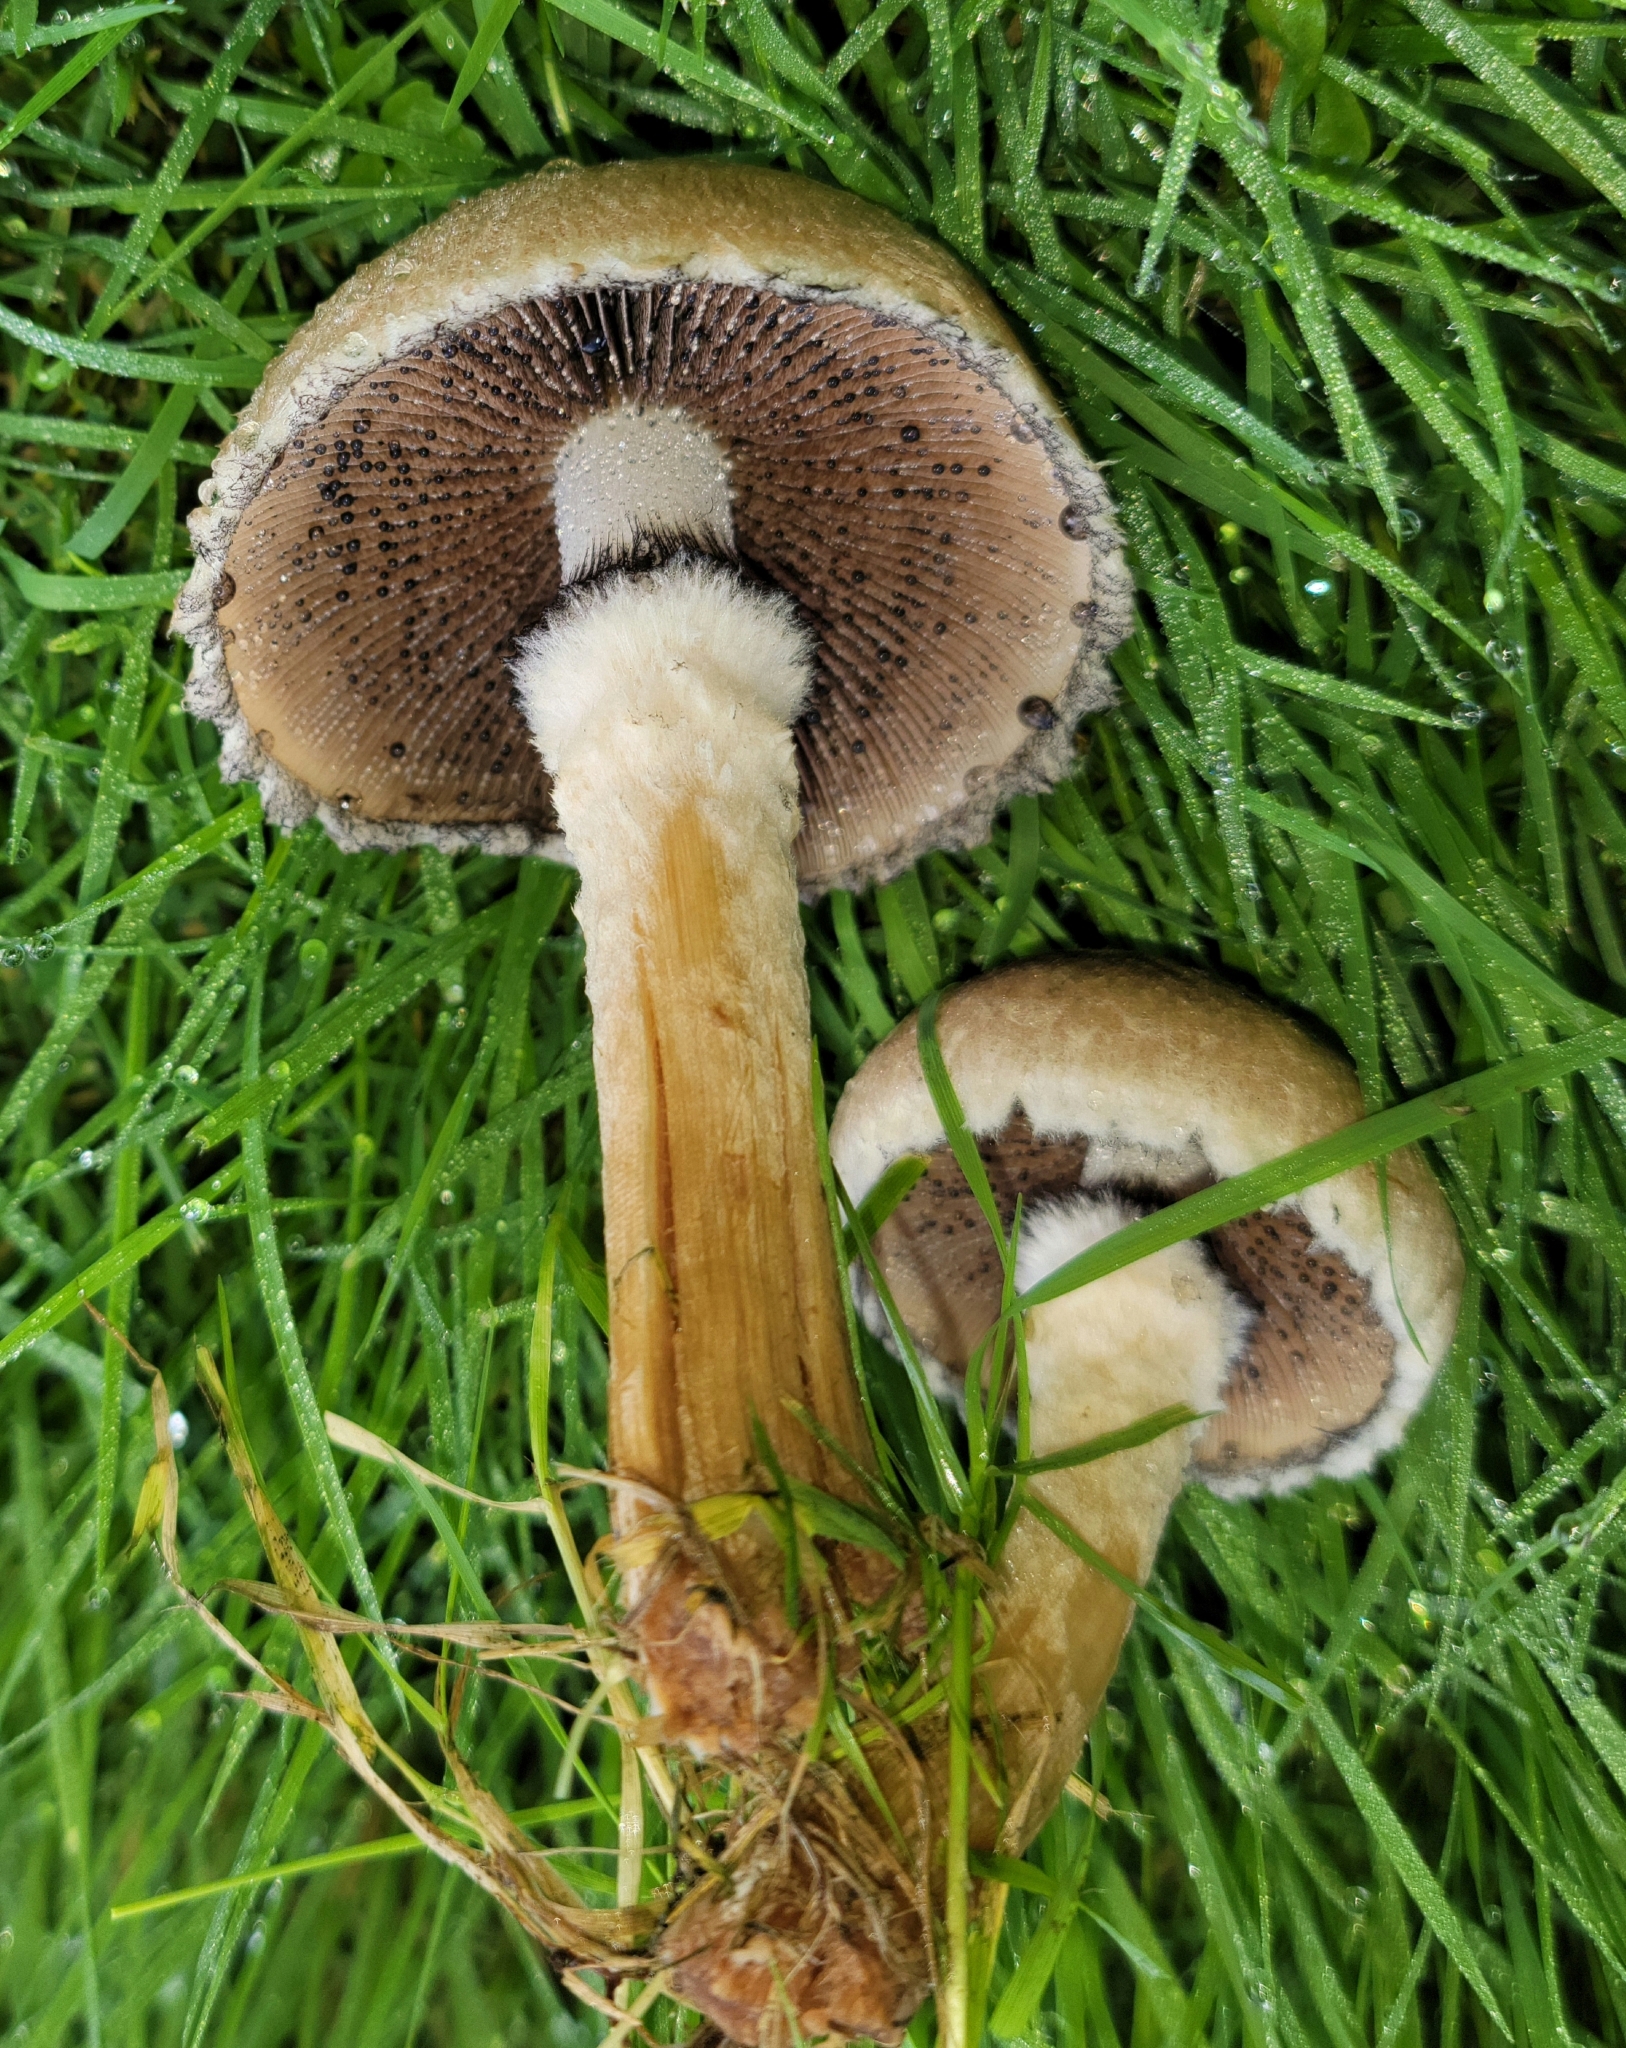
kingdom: Fungi
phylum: Basidiomycota
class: Agaricomycetes
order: Agaricales
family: Psathyrellaceae
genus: Lacrymaria
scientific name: Lacrymaria lacrymabunda
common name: Weeping widow
